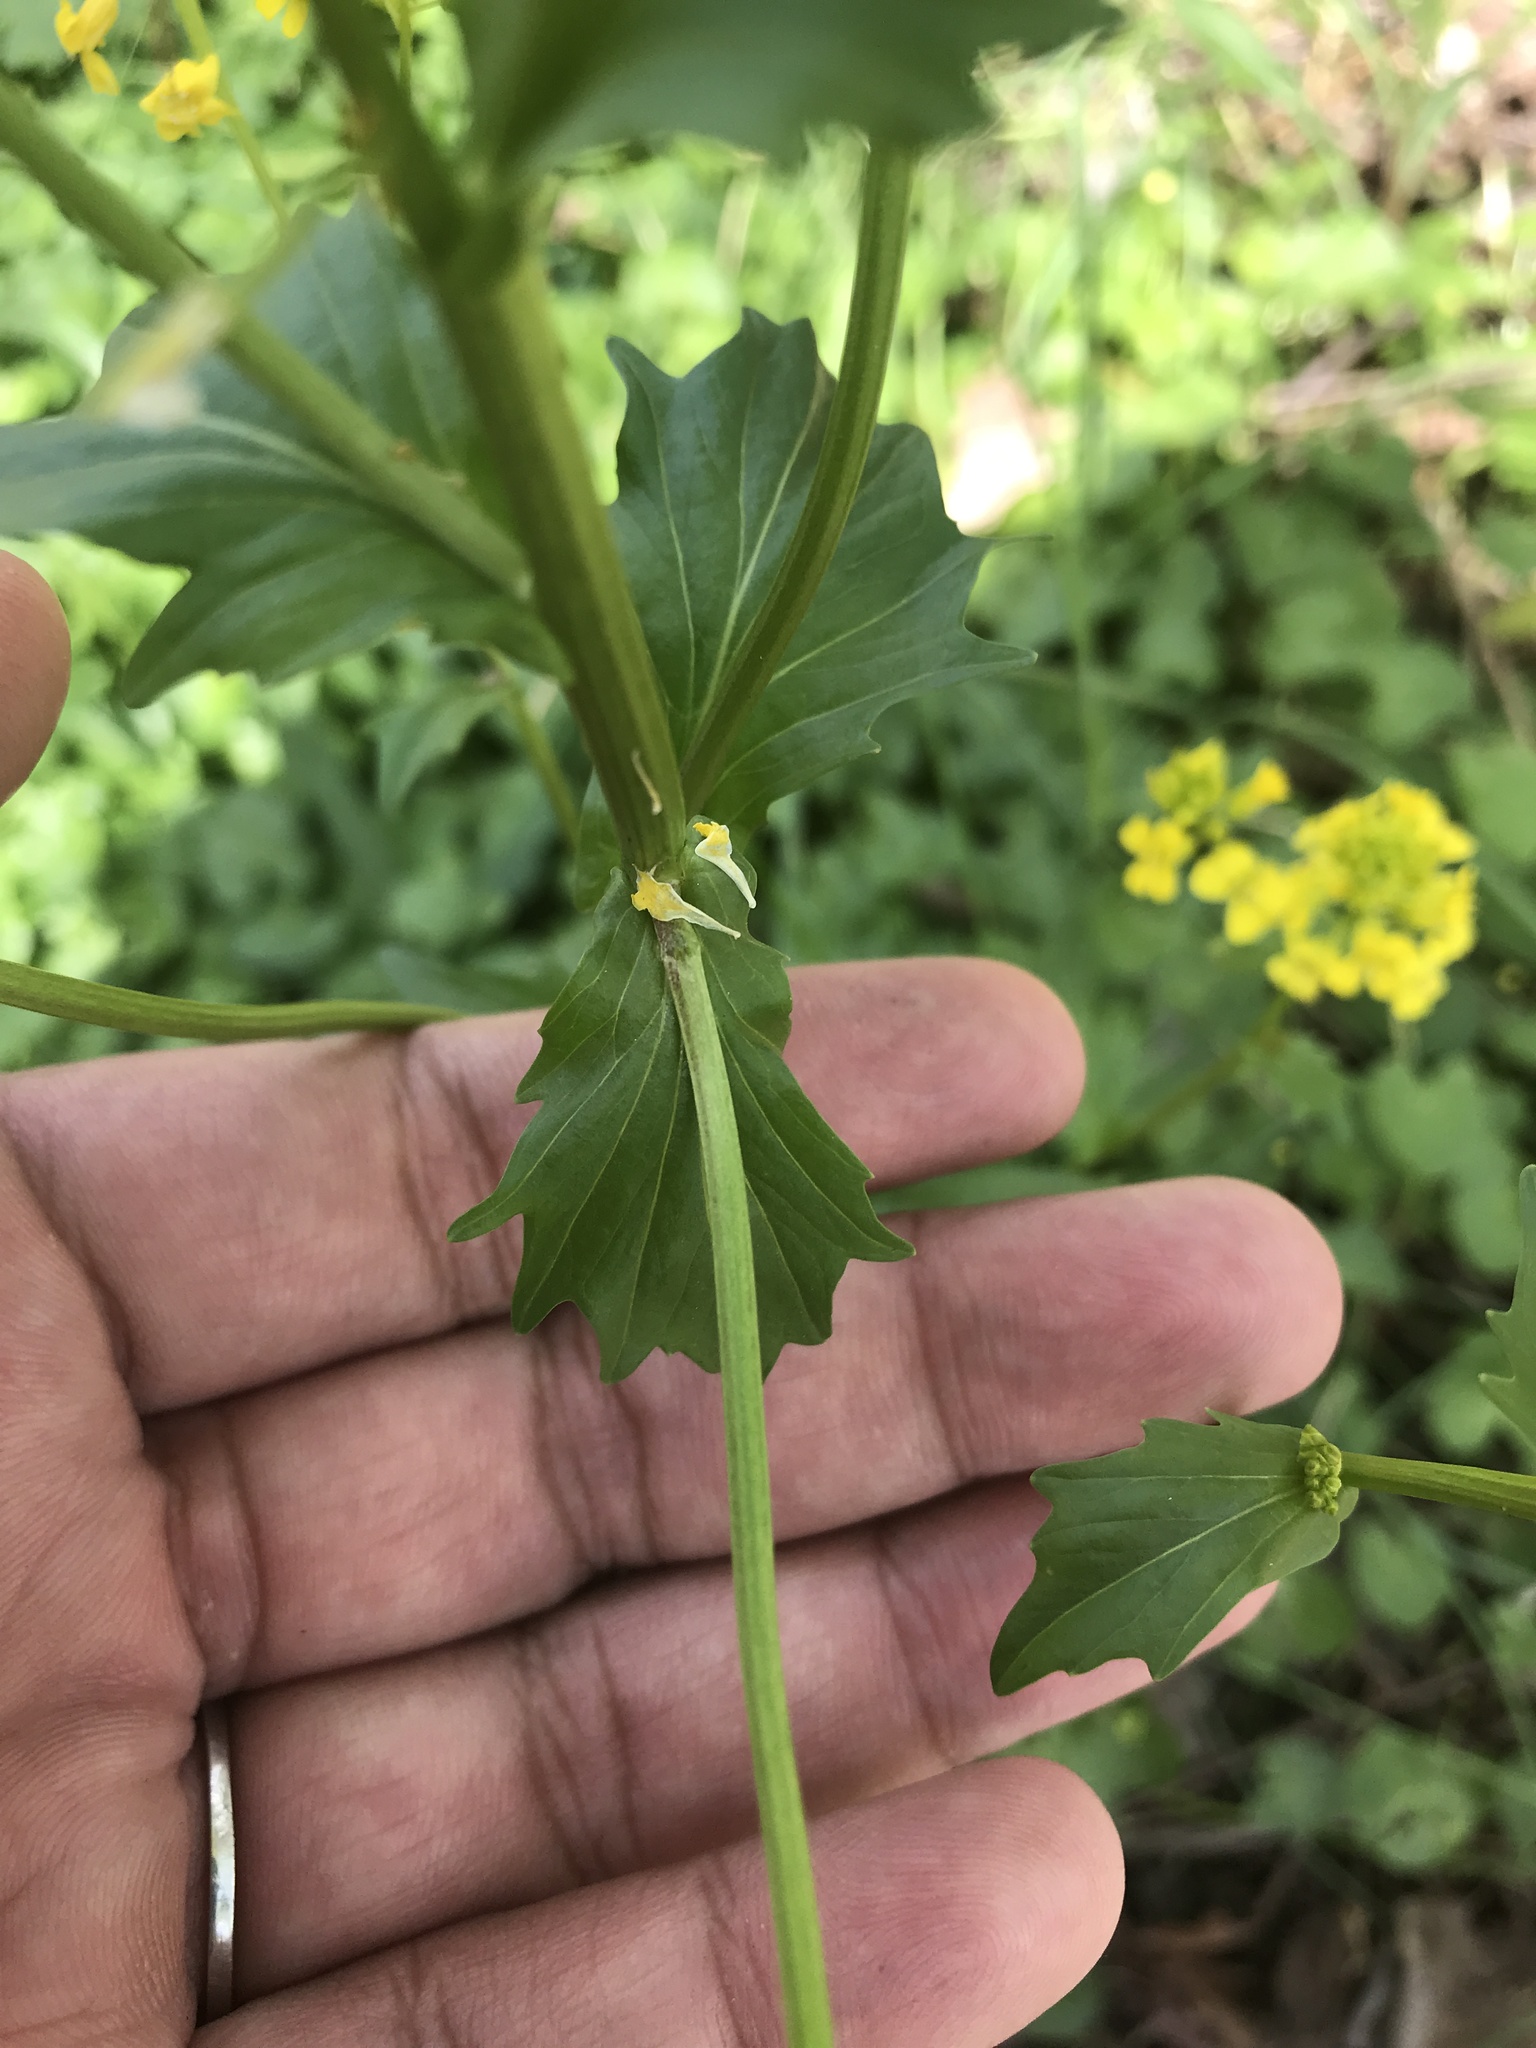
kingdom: Plantae
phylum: Tracheophyta
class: Magnoliopsida
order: Brassicales
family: Brassicaceae
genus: Barbarea
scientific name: Barbarea vulgaris
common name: Cressy-greens
